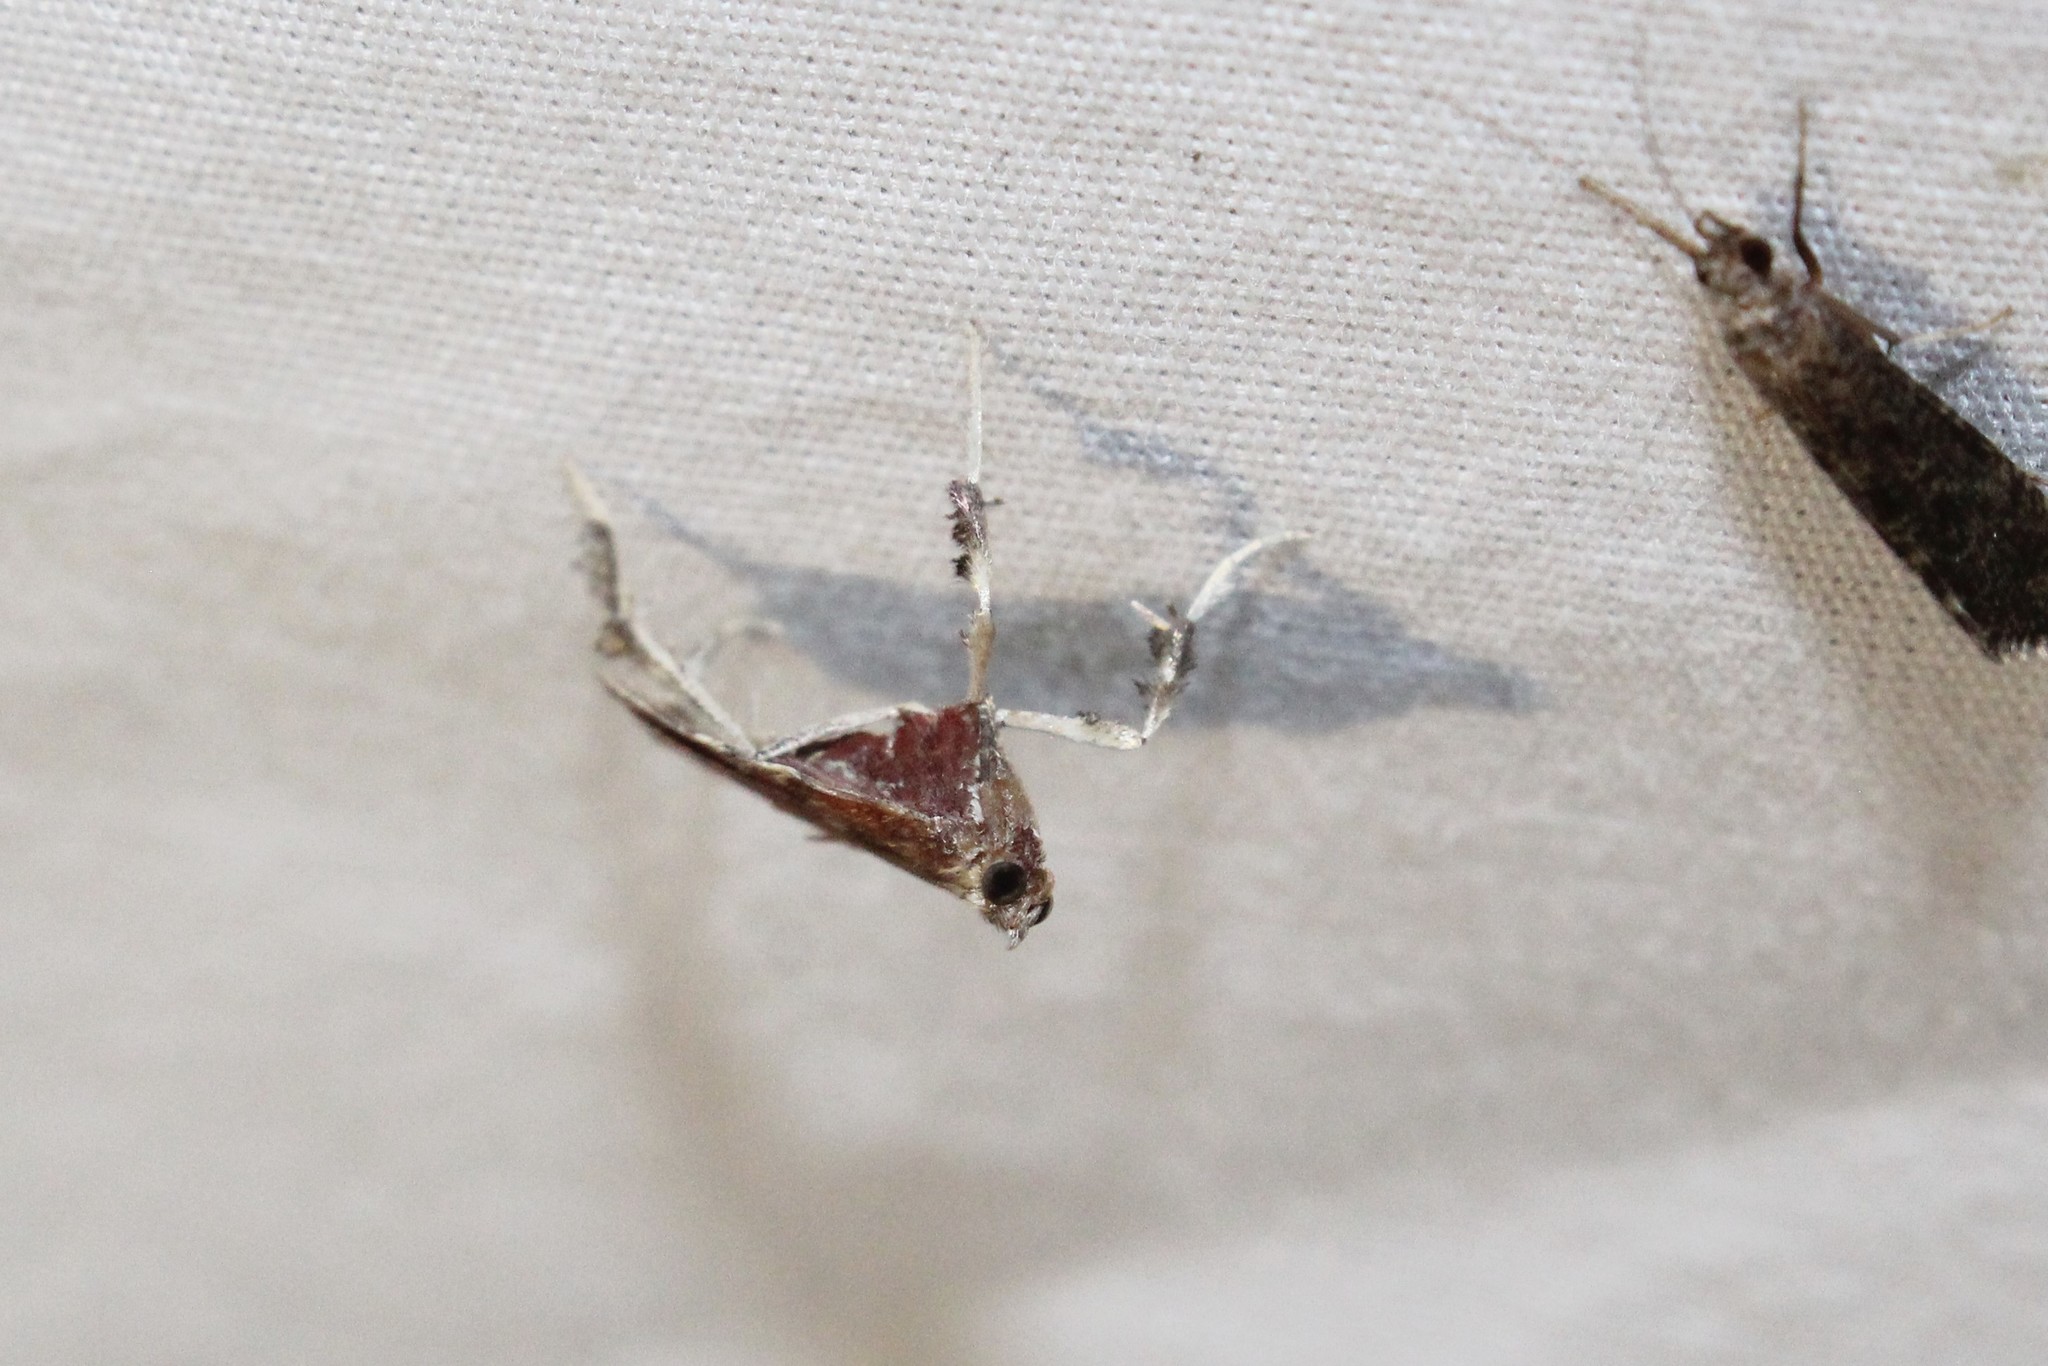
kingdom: Animalia
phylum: Arthropoda
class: Insecta
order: Lepidoptera
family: Pyralidae
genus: Galasa
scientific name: Galasa nigrinodis
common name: Boxwood leaftier moth
